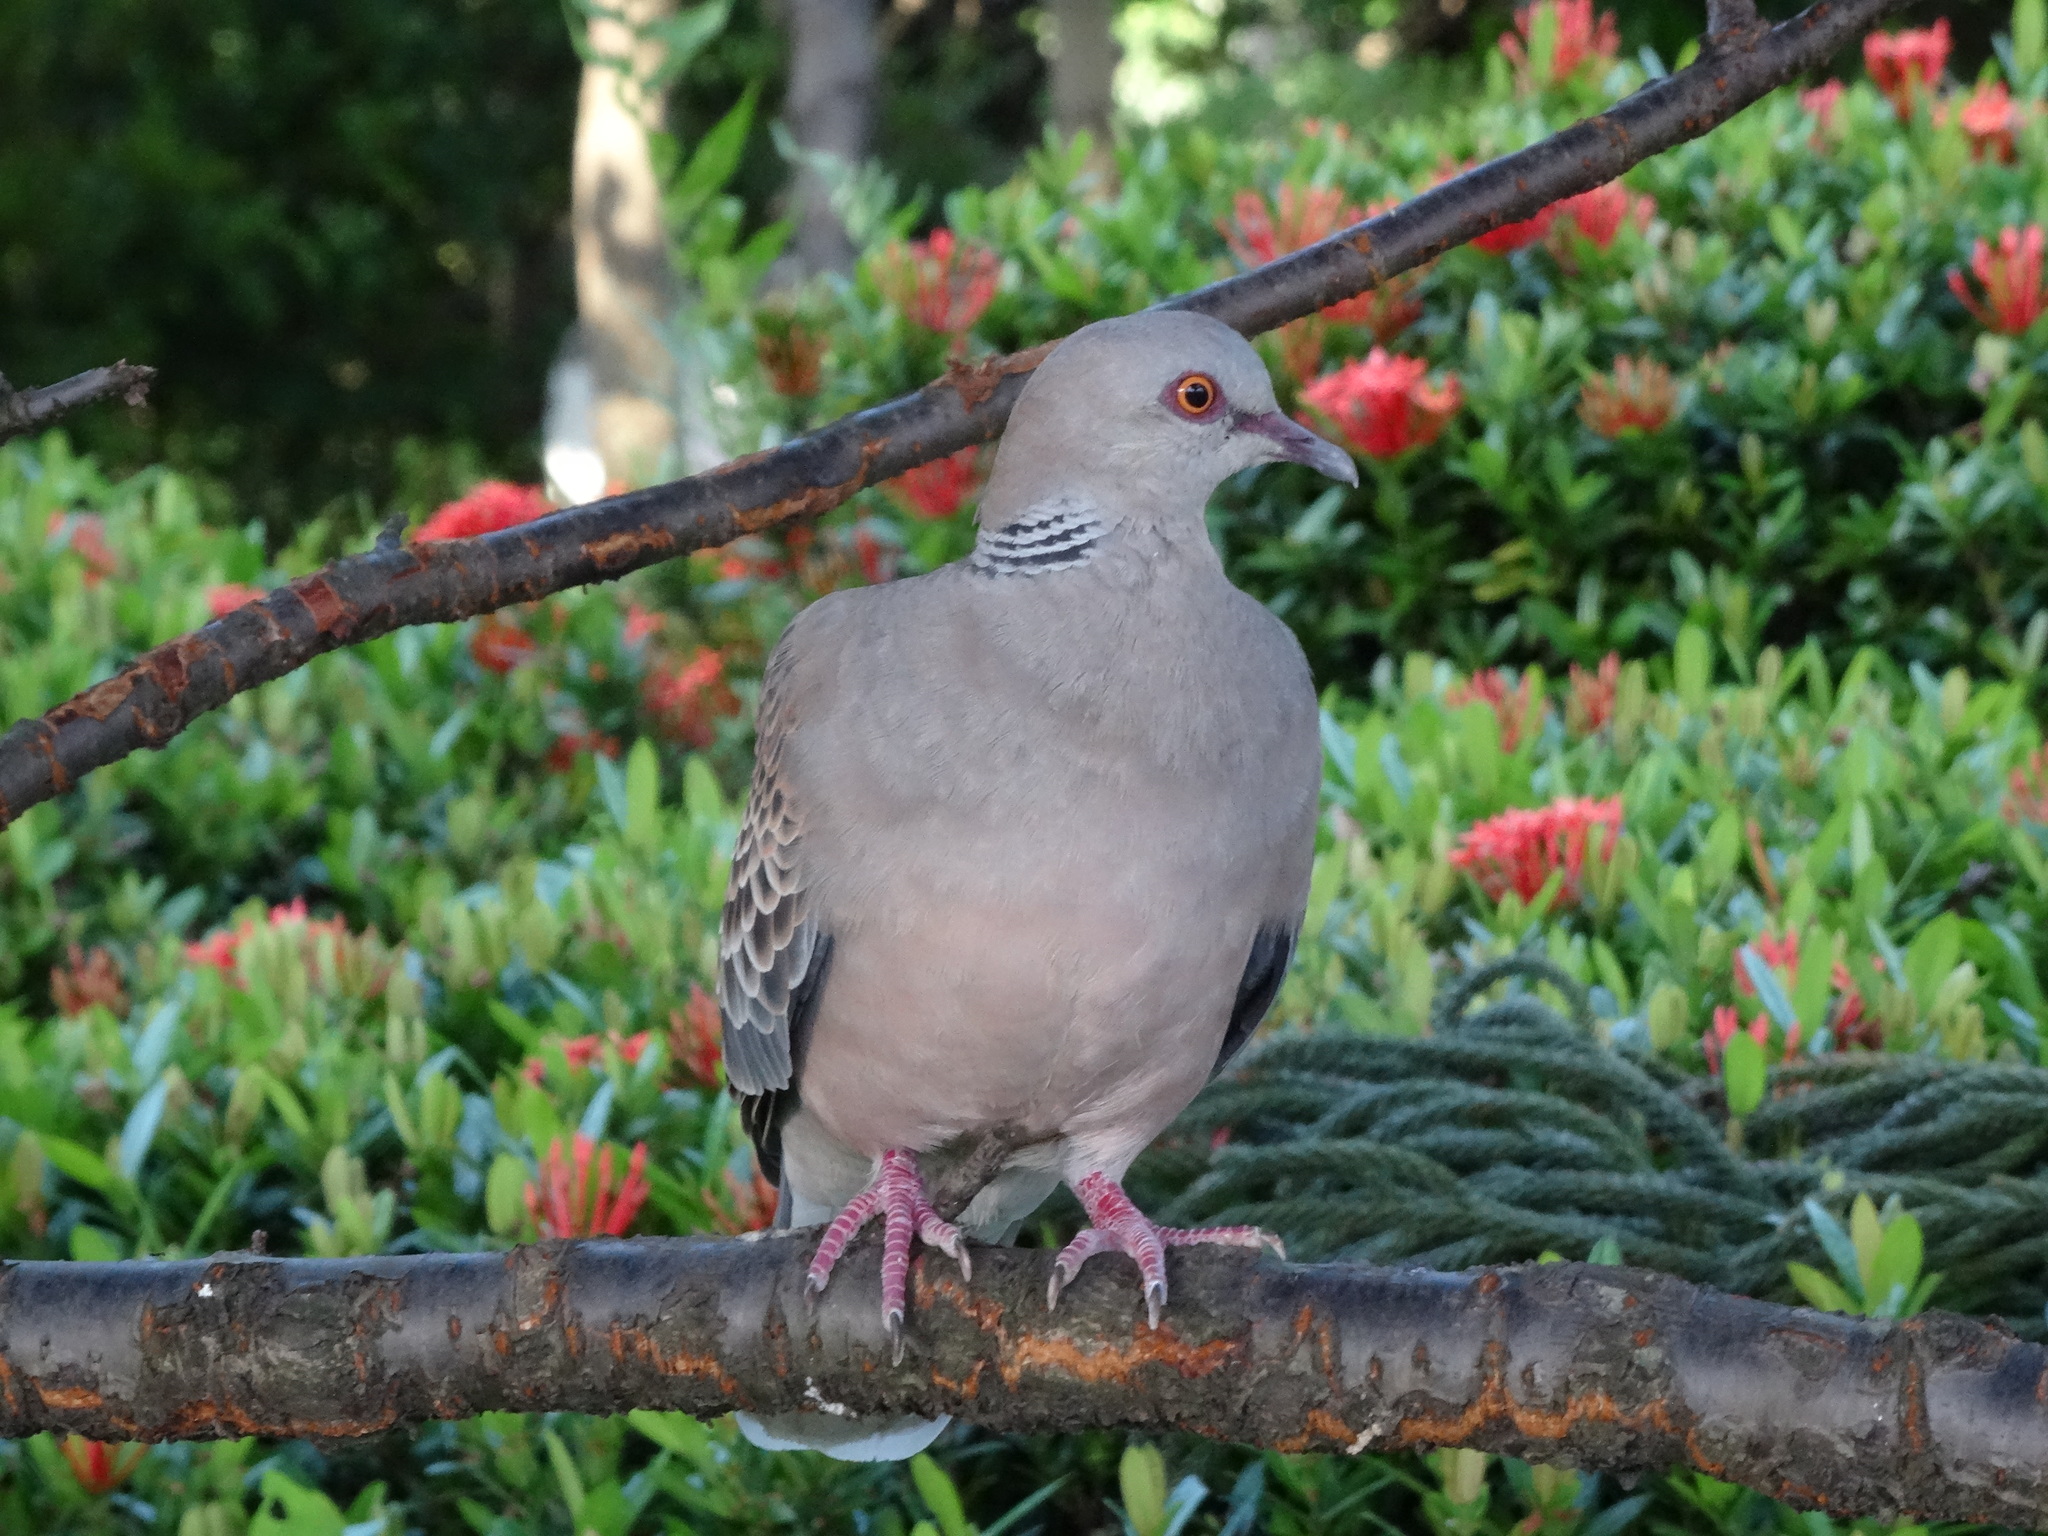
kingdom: Animalia
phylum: Chordata
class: Aves
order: Columbiformes
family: Columbidae
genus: Streptopelia
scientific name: Streptopelia orientalis
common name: Oriental turtle dove
